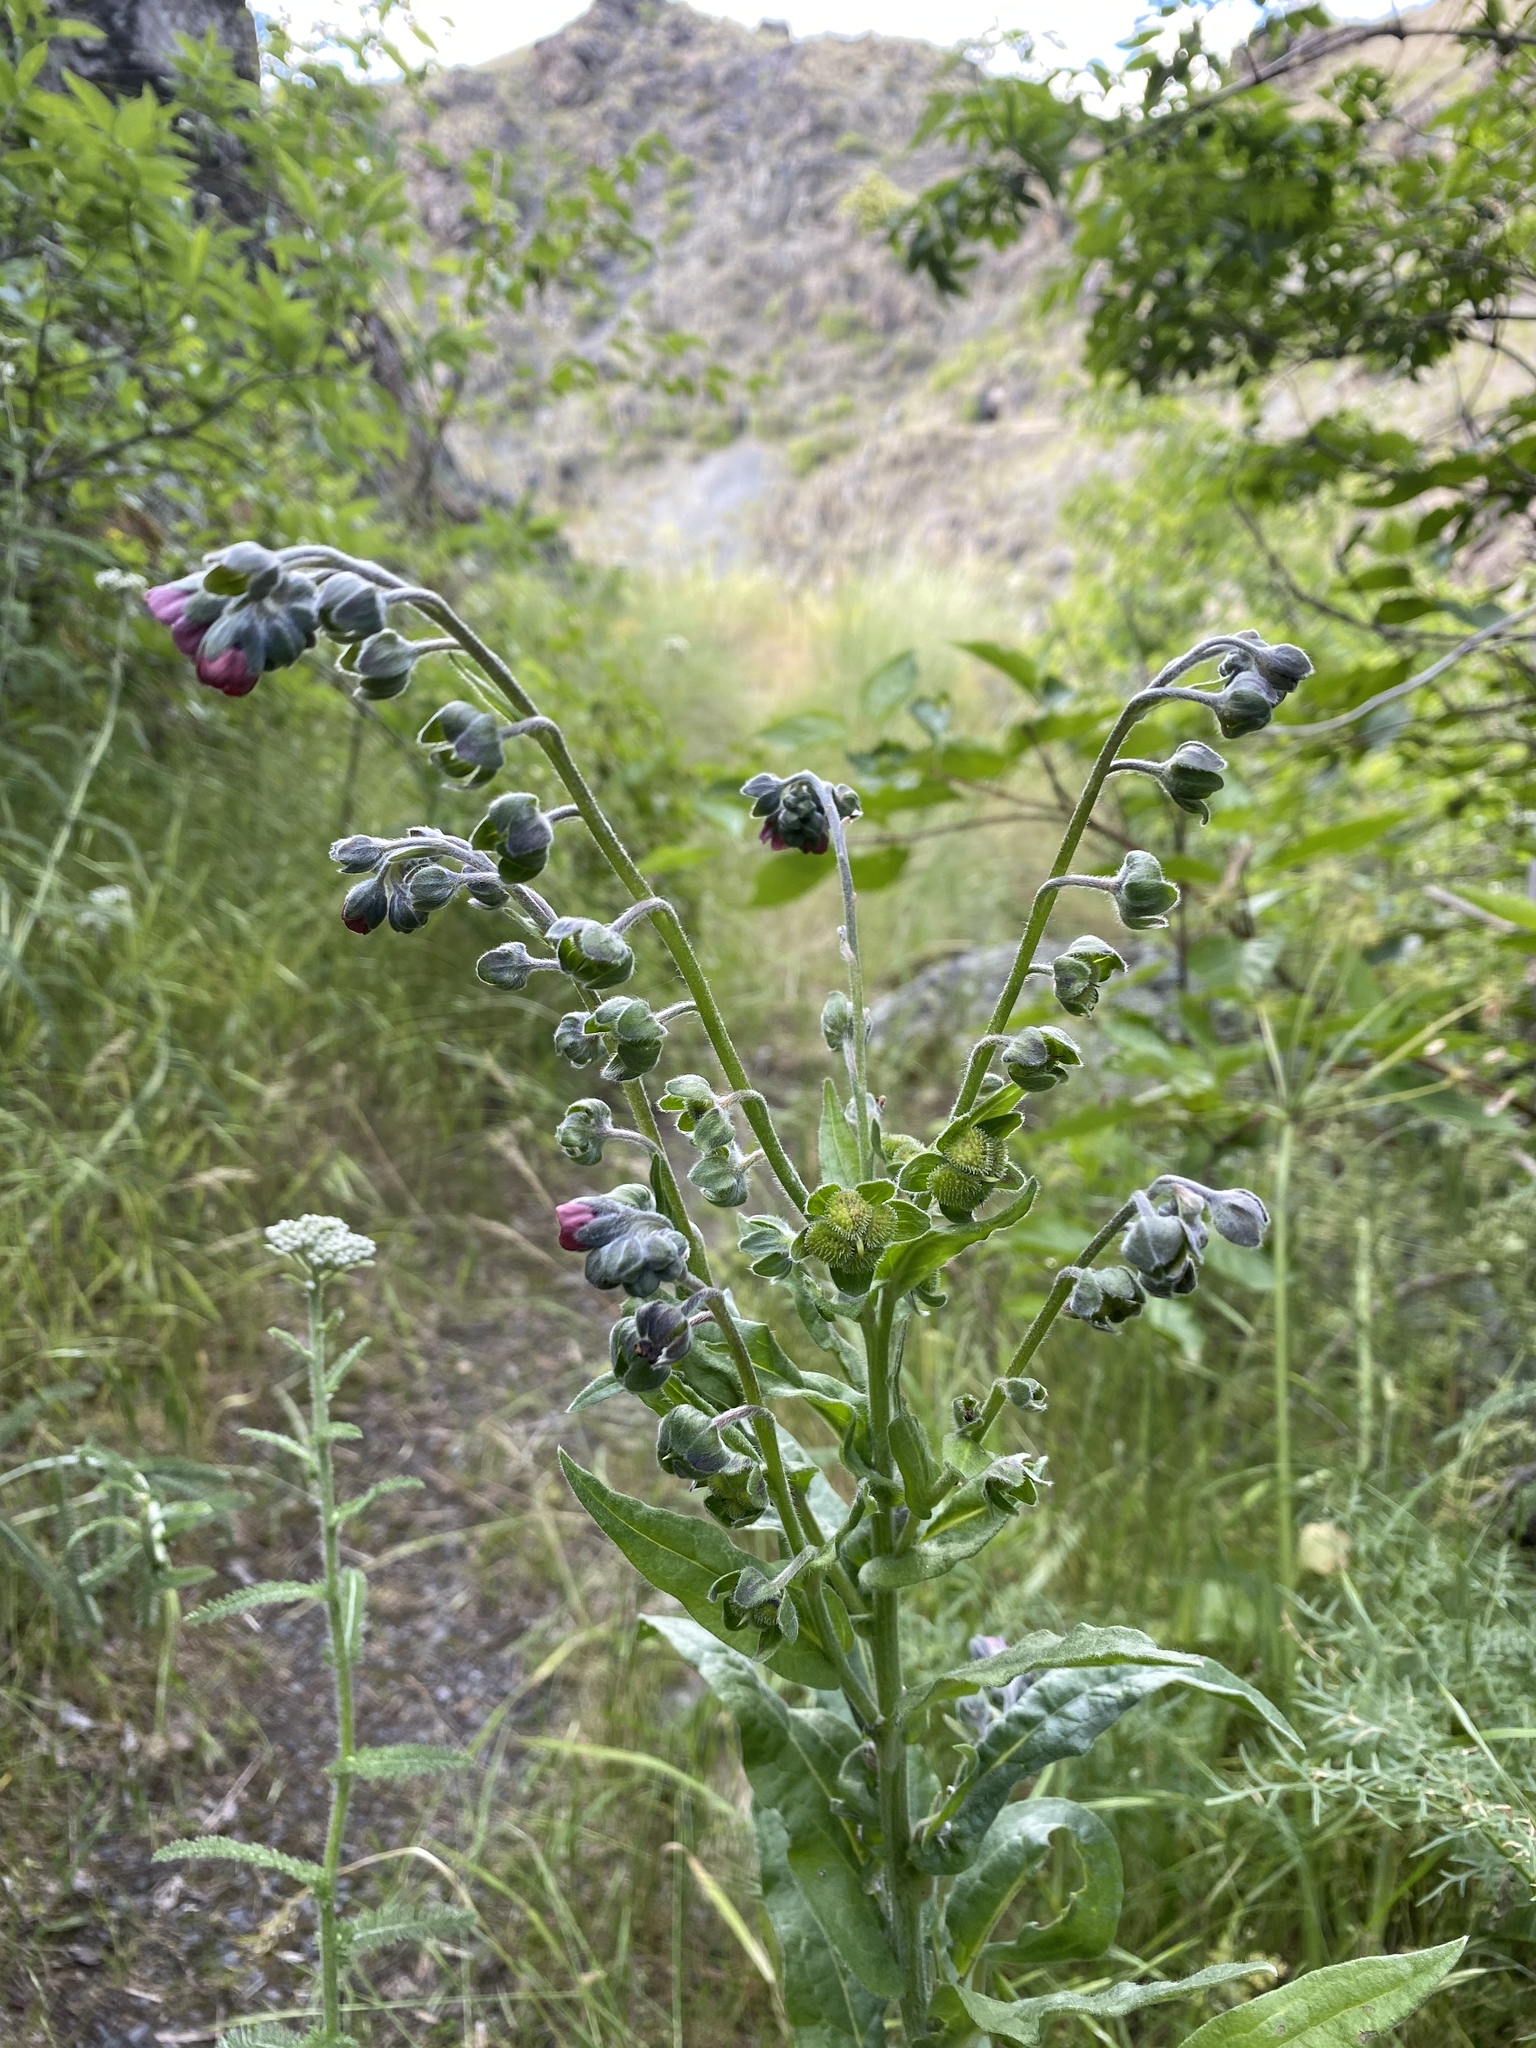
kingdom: Plantae
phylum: Tracheophyta
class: Magnoliopsida
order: Boraginales
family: Boraginaceae
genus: Cynoglossum
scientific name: Cynoglossum officinale
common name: Hound's-tongue
